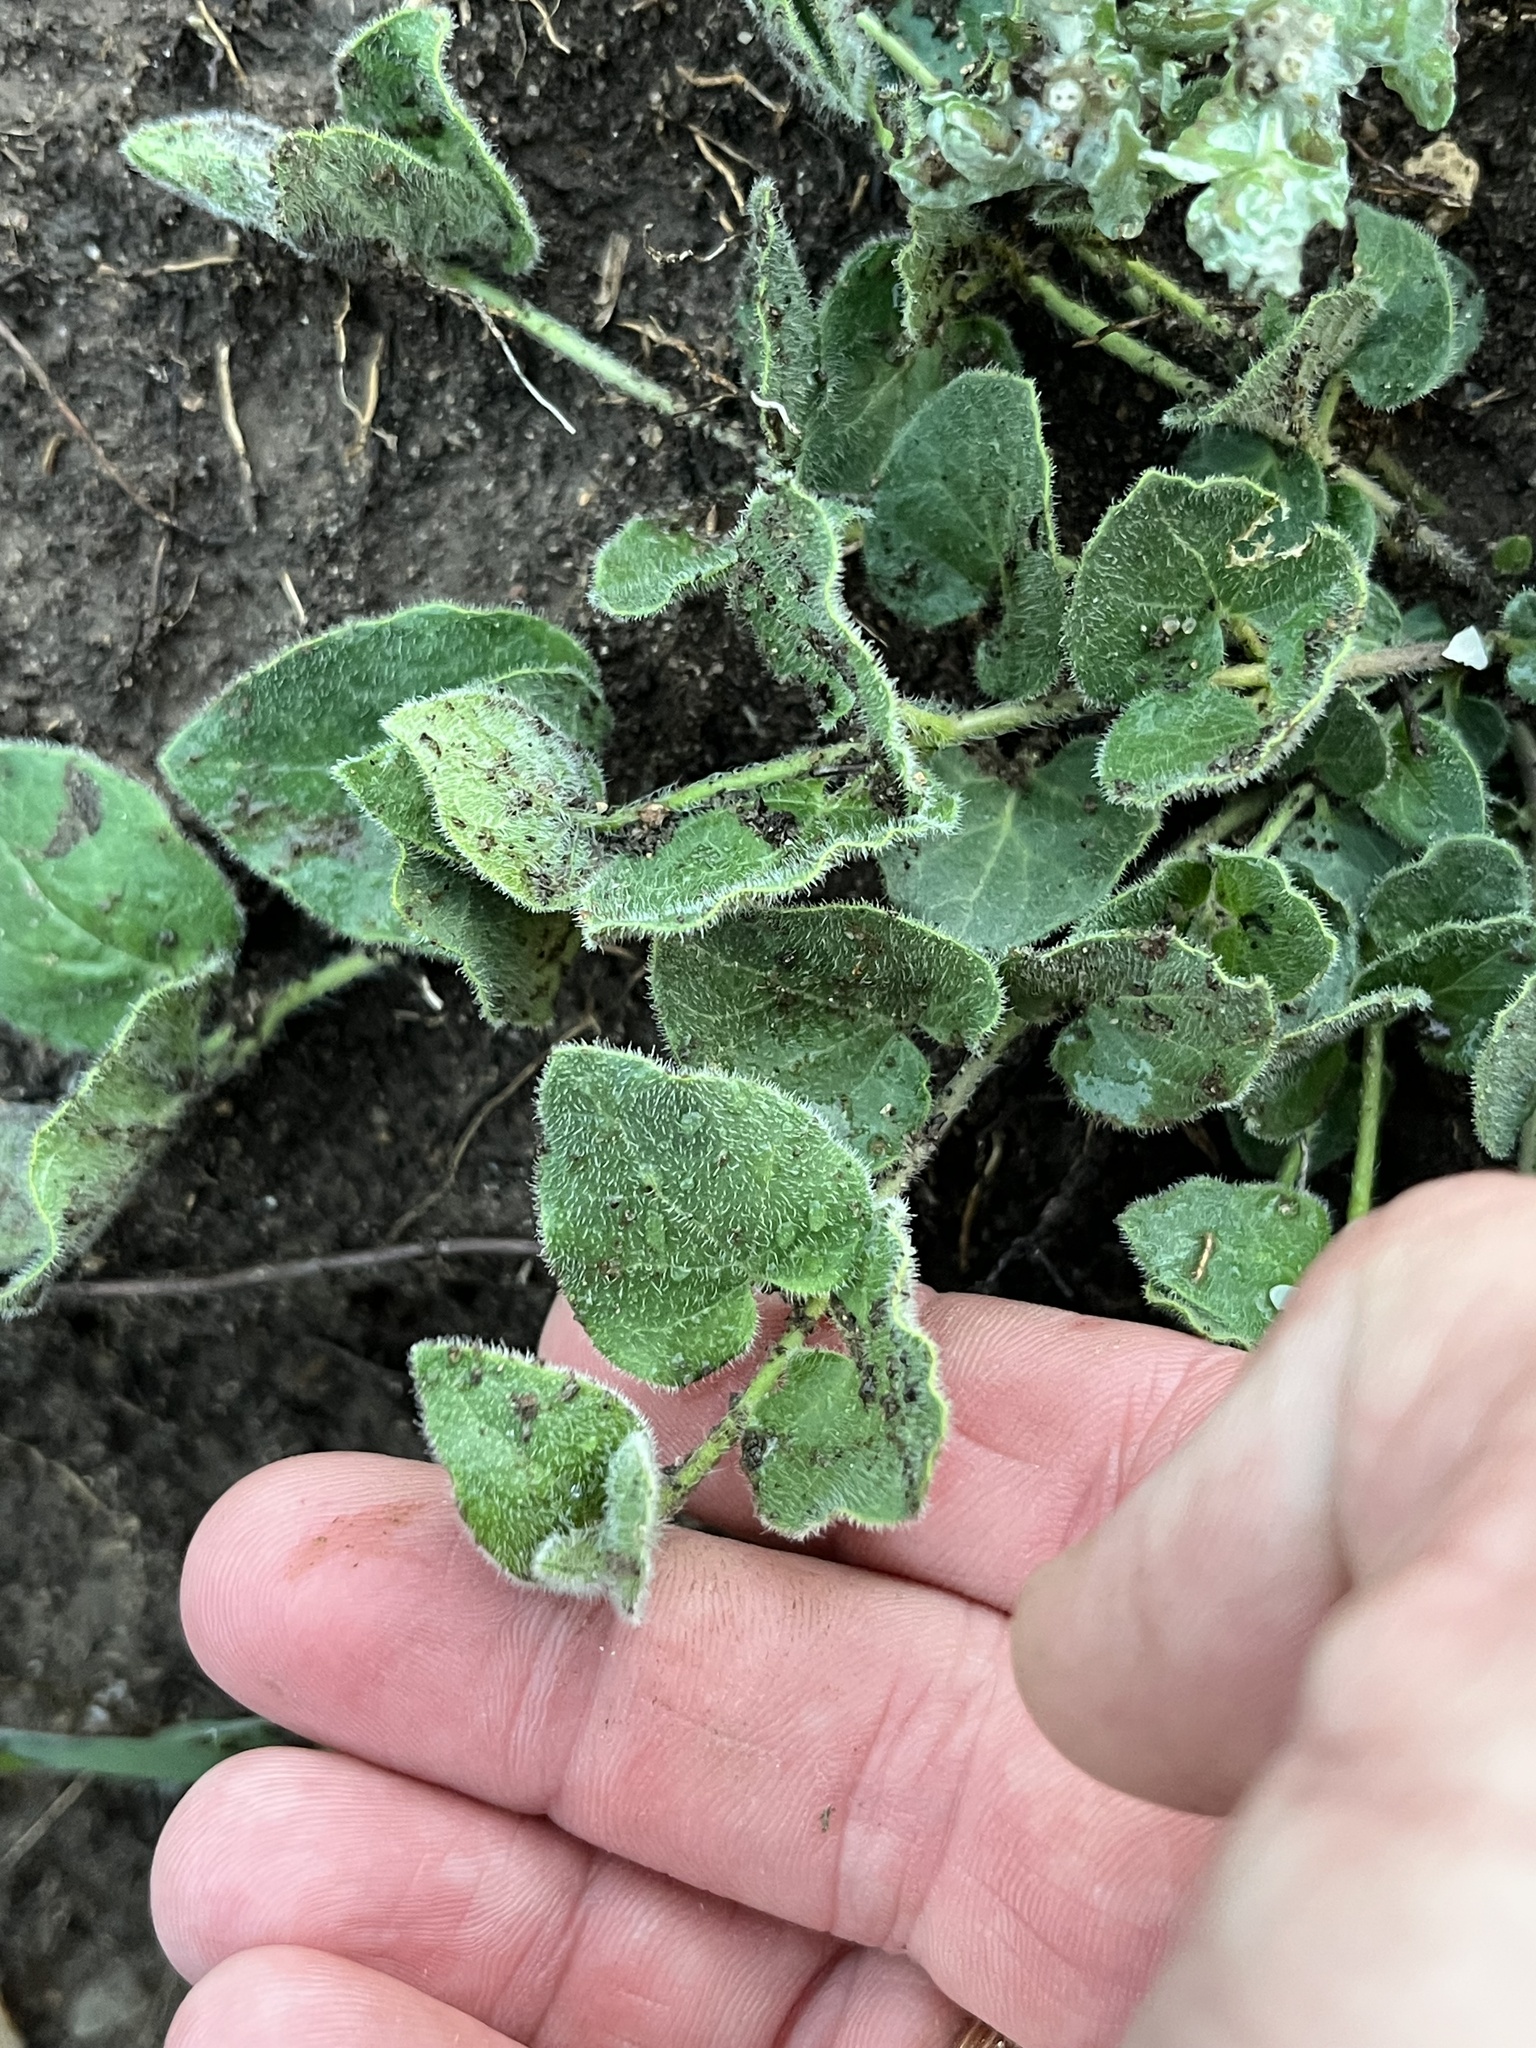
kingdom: Plantae
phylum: Tracheophyta
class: Magnoliopsida
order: Gentianales
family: Apocynaceae
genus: Chthamalia
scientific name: Chthamalia biflora
